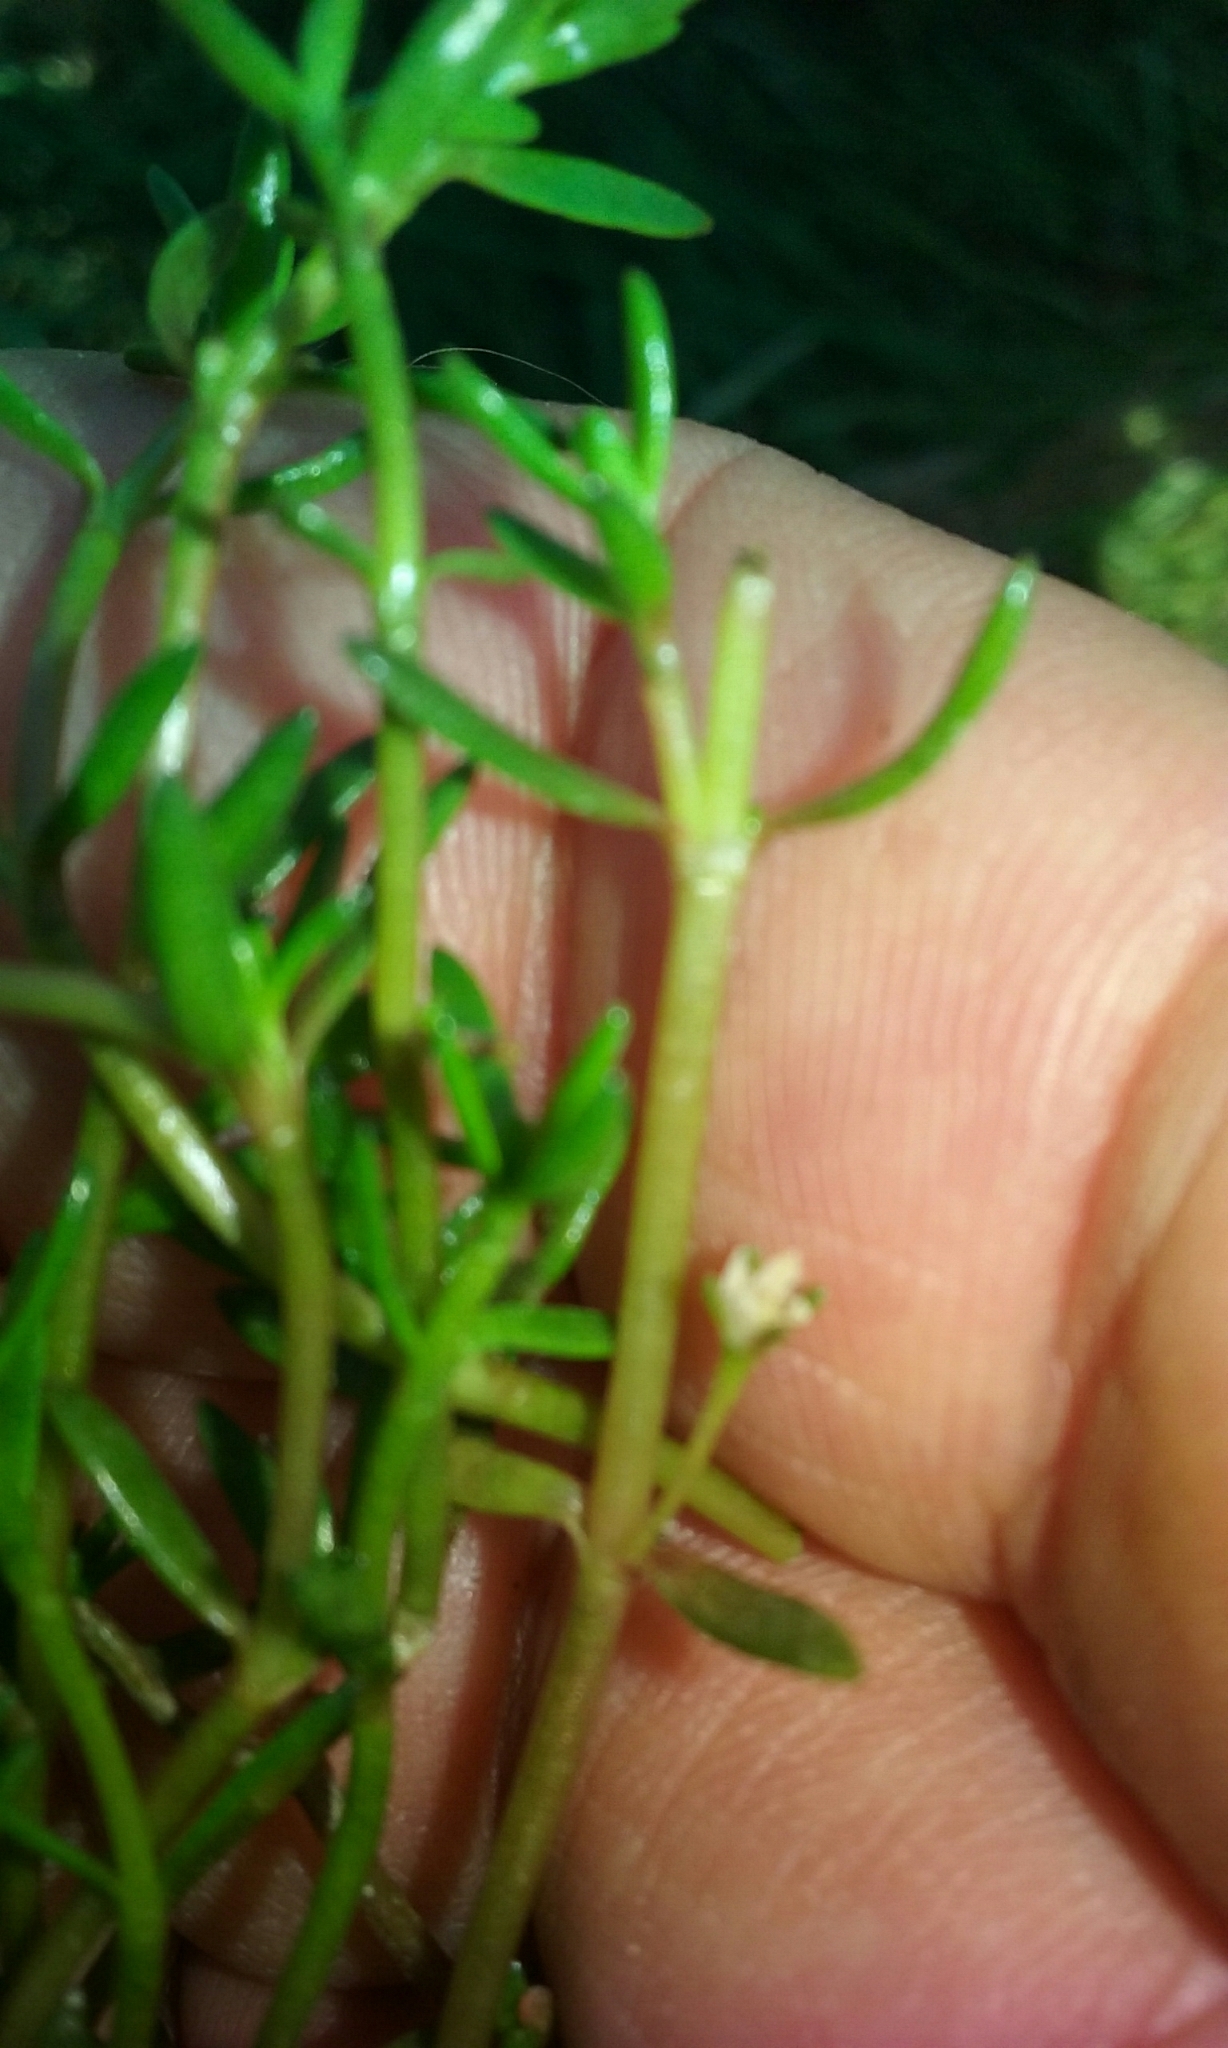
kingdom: Plantae
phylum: Tracheophyta
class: Magnoliopsida
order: Saxifragales
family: Crassulaceae
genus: Crassula
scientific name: Crassula natans
